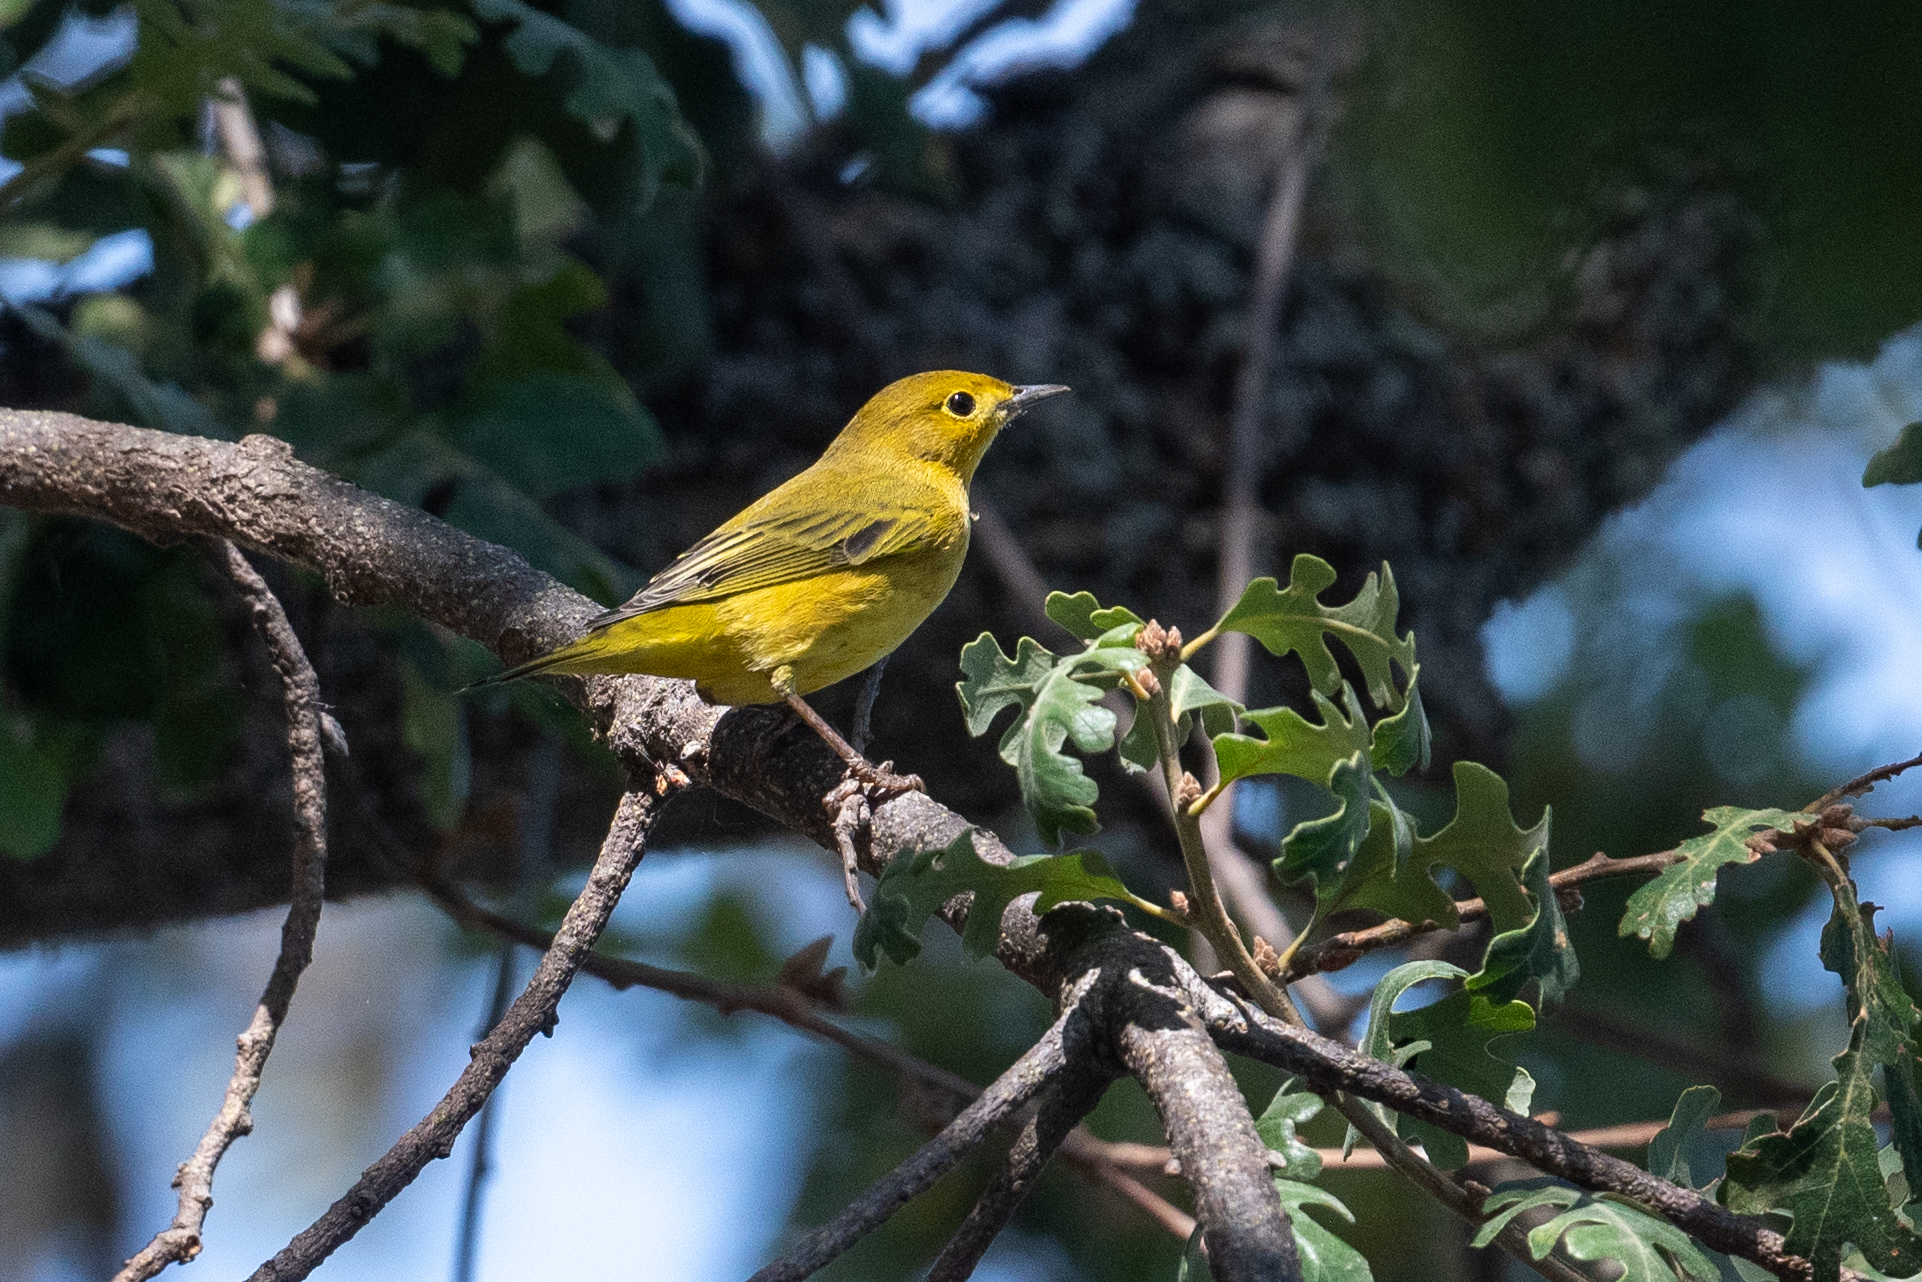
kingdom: Animalia
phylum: Chordata
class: Aves
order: Passeriformes
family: Parulidae
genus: Setophaga
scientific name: Setophaga petechia
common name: Yellow warbler
